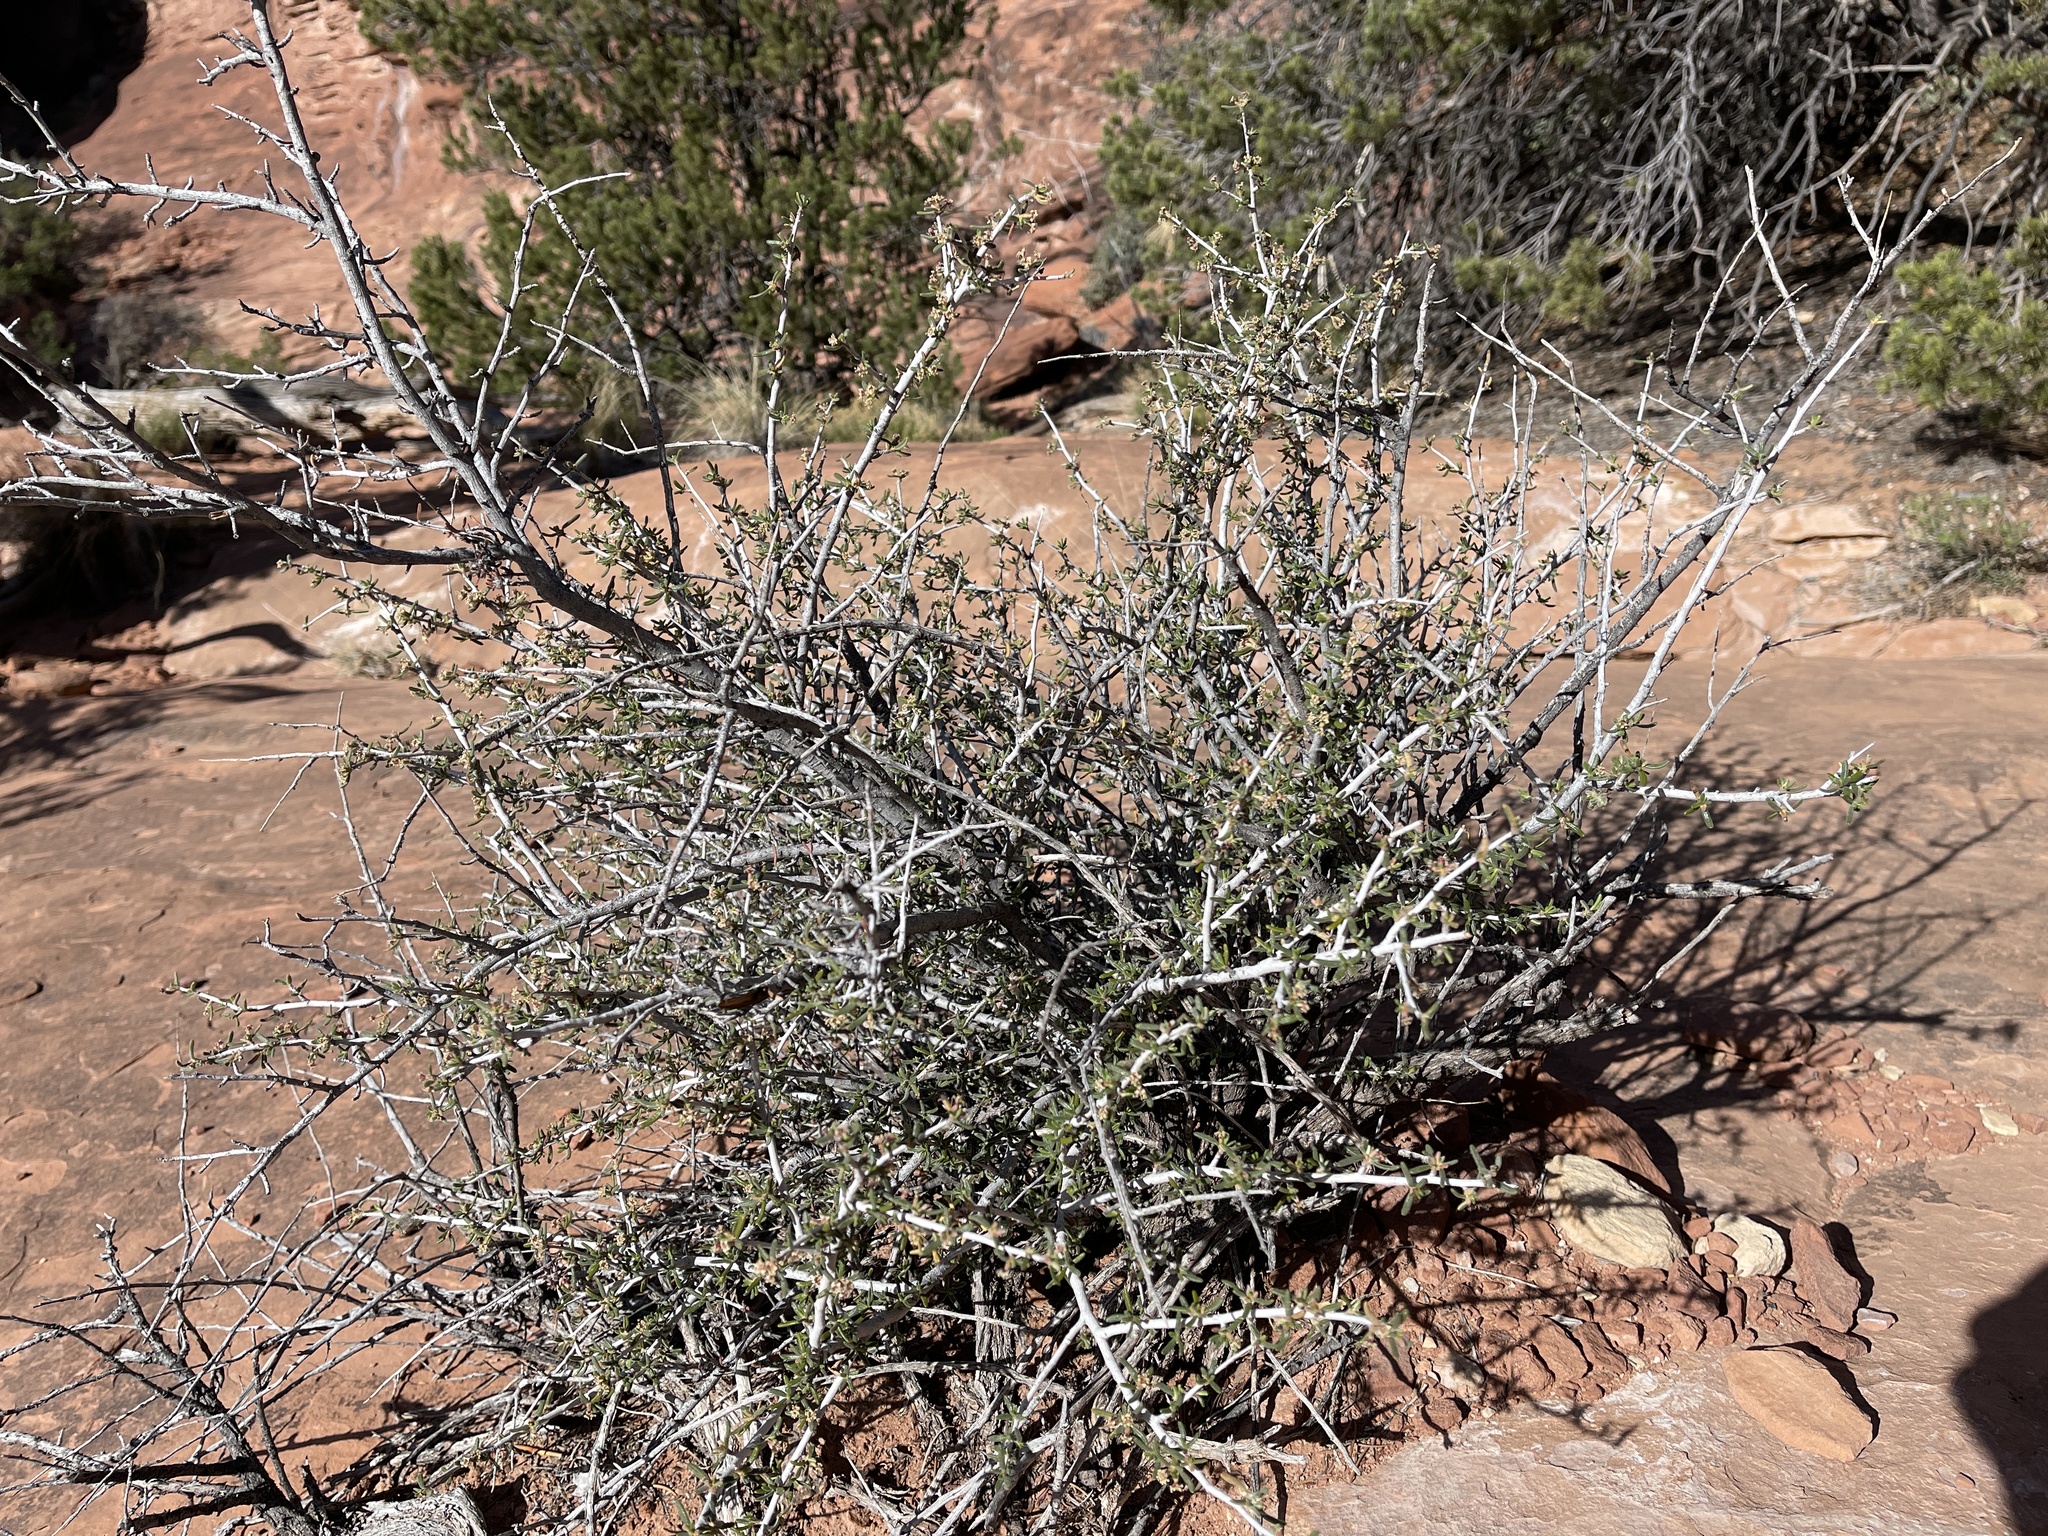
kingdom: Plantae
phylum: Tracheophyta
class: Magnoliopsida
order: Rosales
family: Rosaceae
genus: Cercocarpus
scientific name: Cercocarpus intricatus
